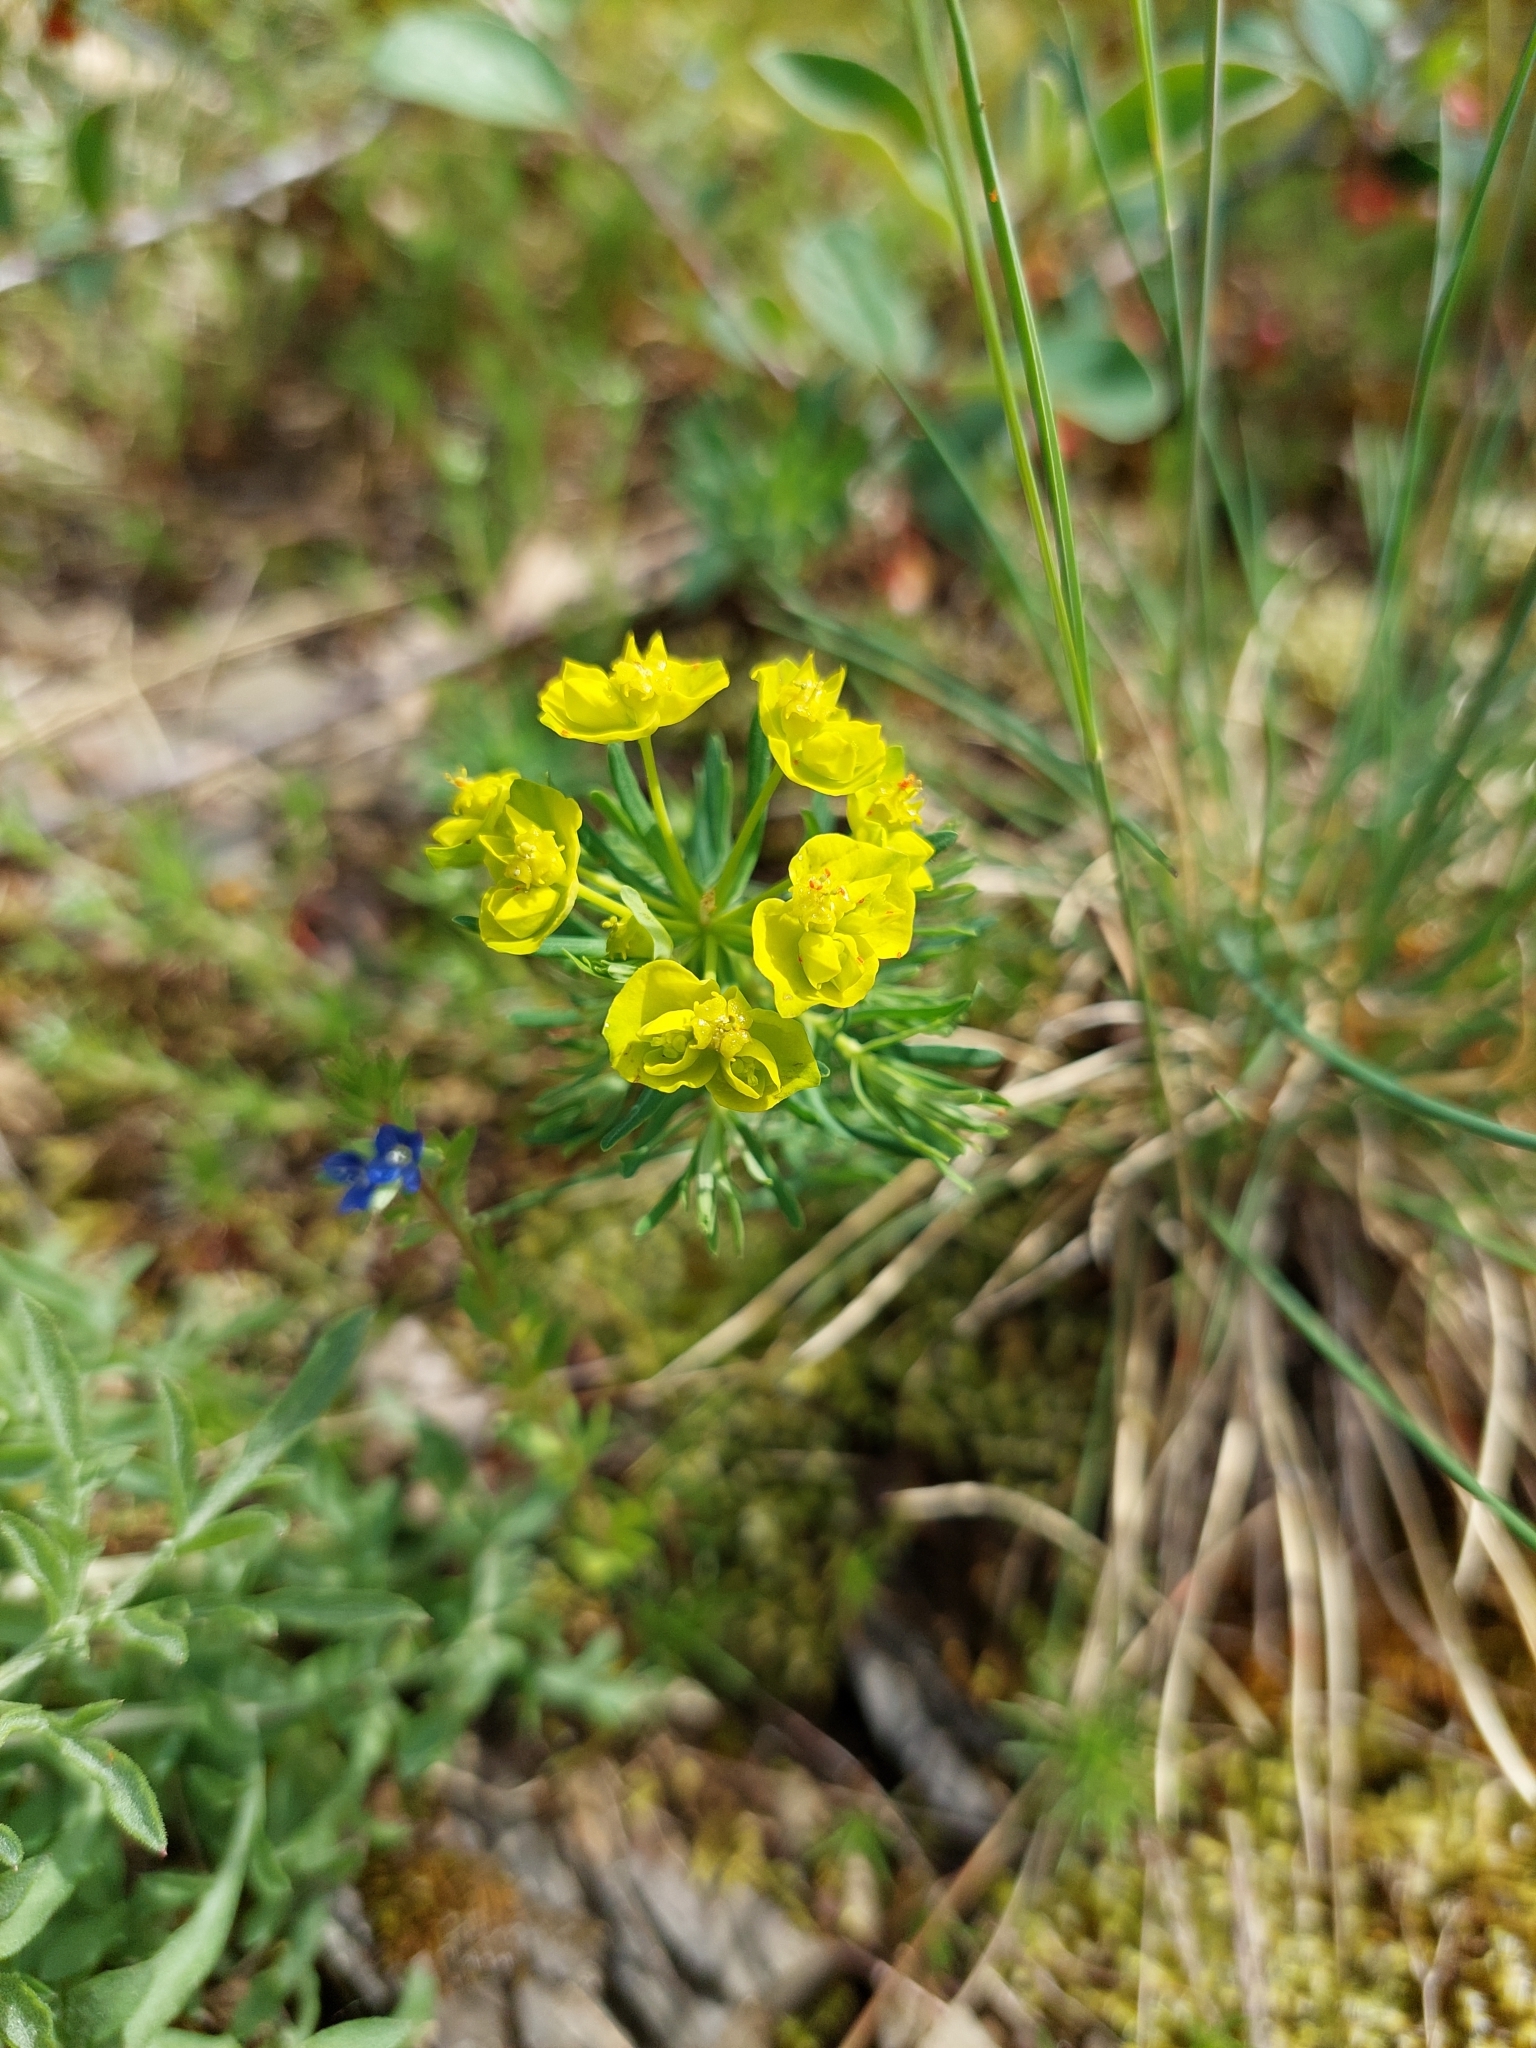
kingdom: Plantae
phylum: Tracheophyta
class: Magnoliopsida
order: Malpighiales
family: Euphorbiaceae
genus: Euphorbia
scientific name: Euphorbia cyparissias
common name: Cypress spurge
